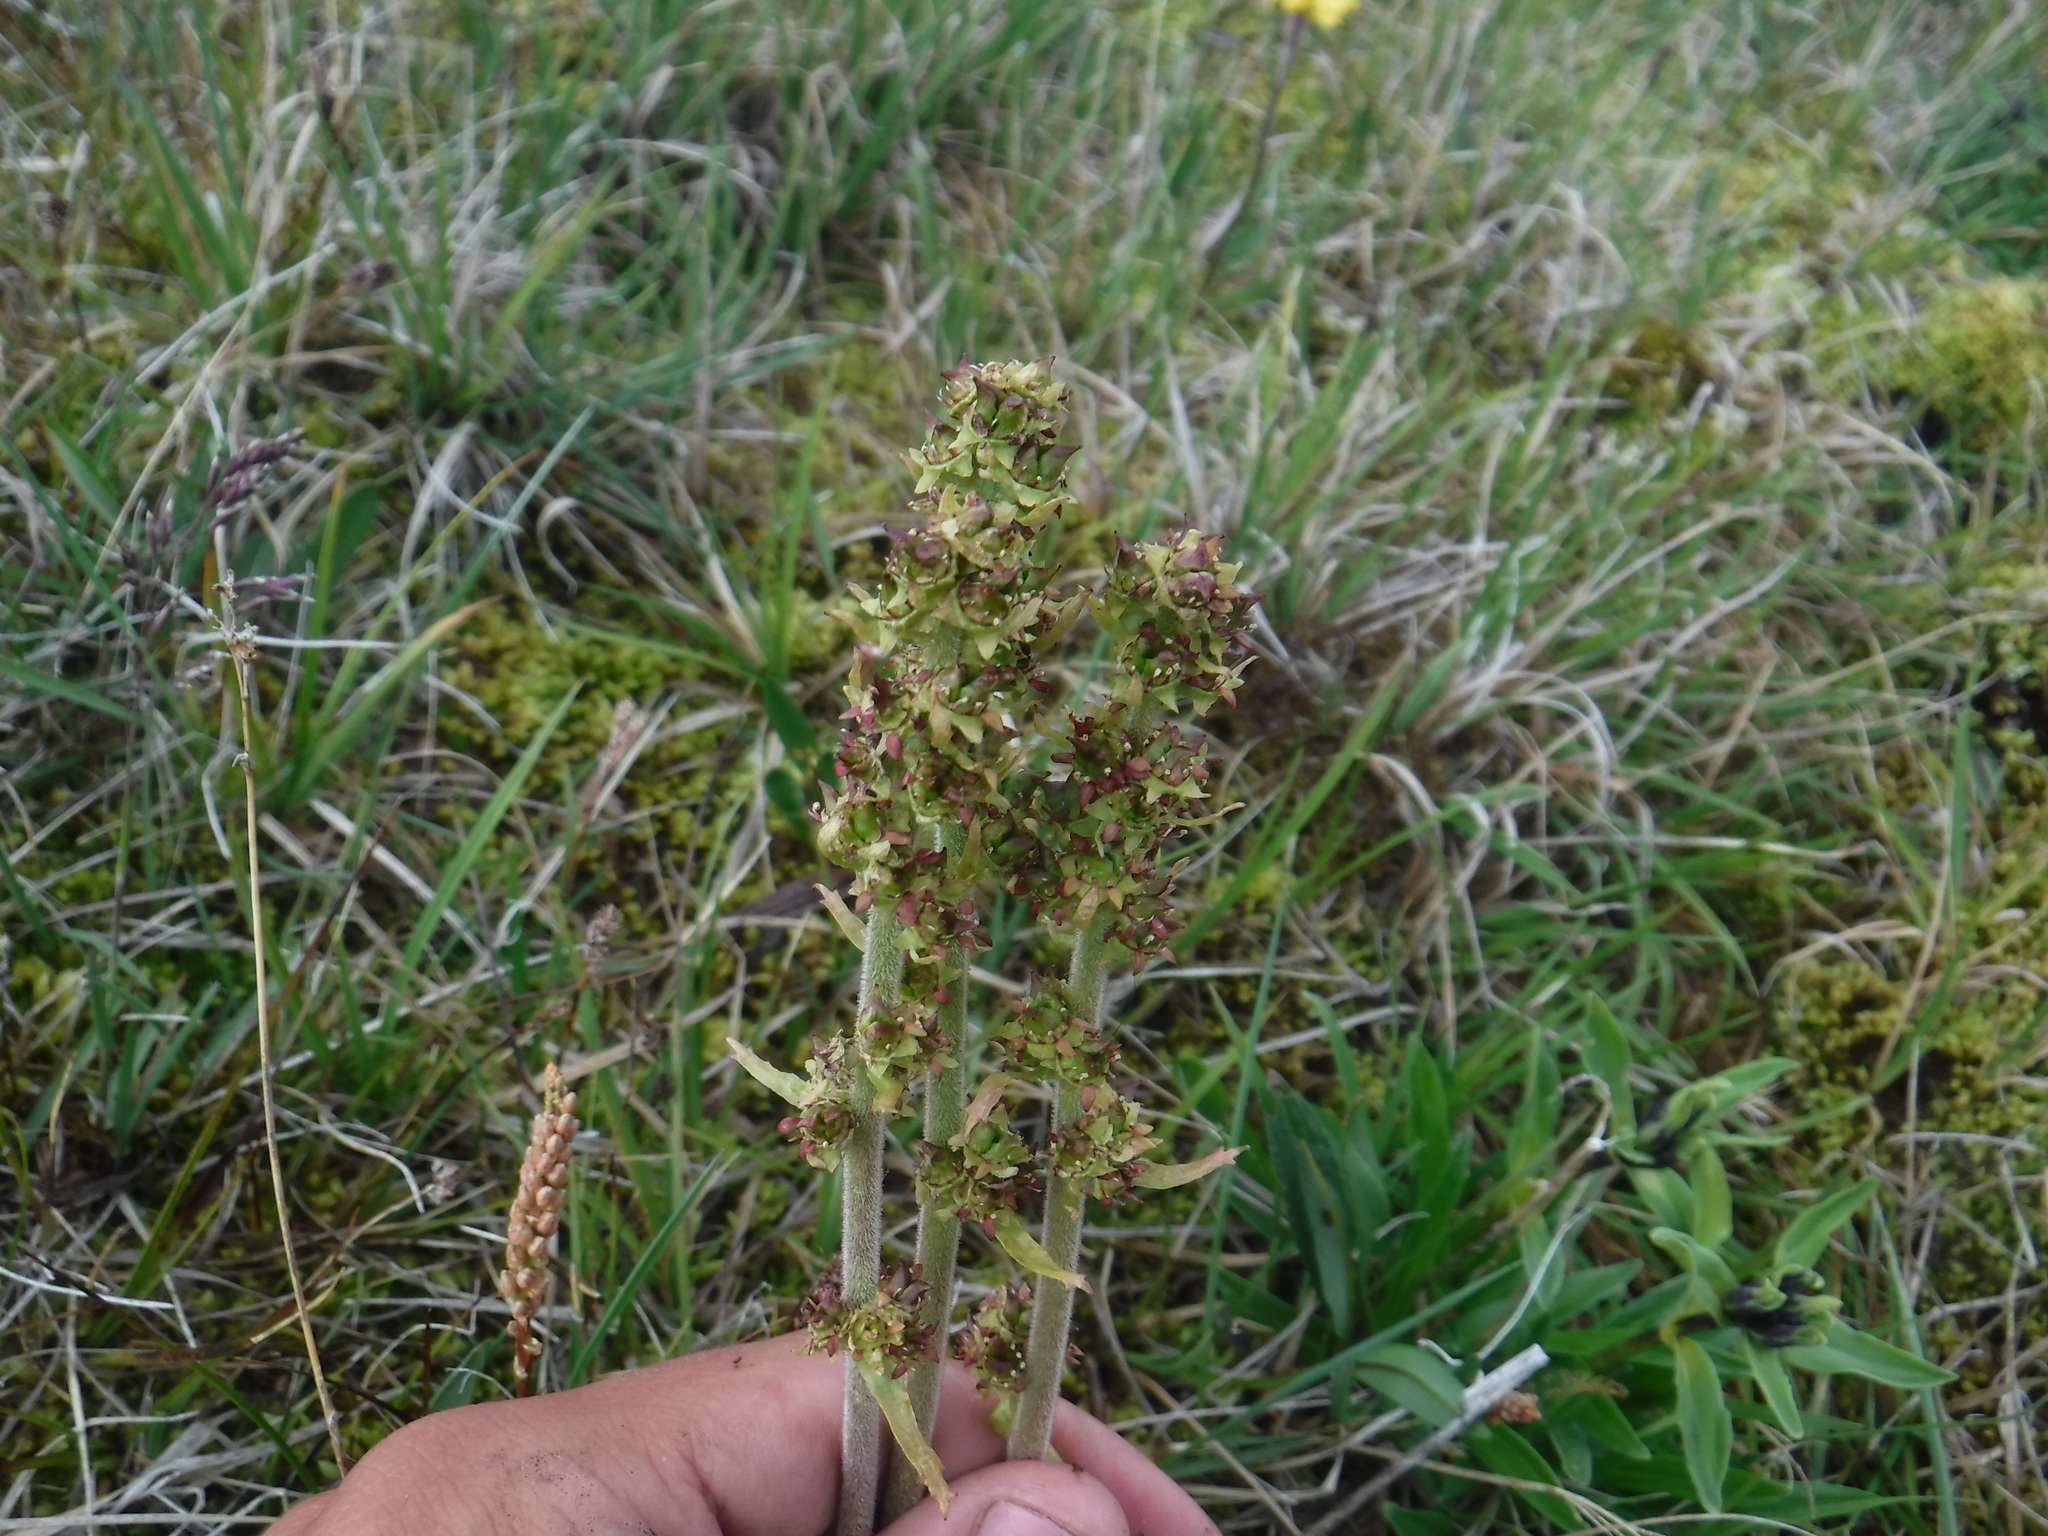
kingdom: Plantae
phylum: Tracheophyta
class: Magnoliopsida
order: Saxifragales
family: Saxifragaceae
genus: Micranthes
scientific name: Micranthes hieraciifolia
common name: Hawkweed-leaved saxifrage
